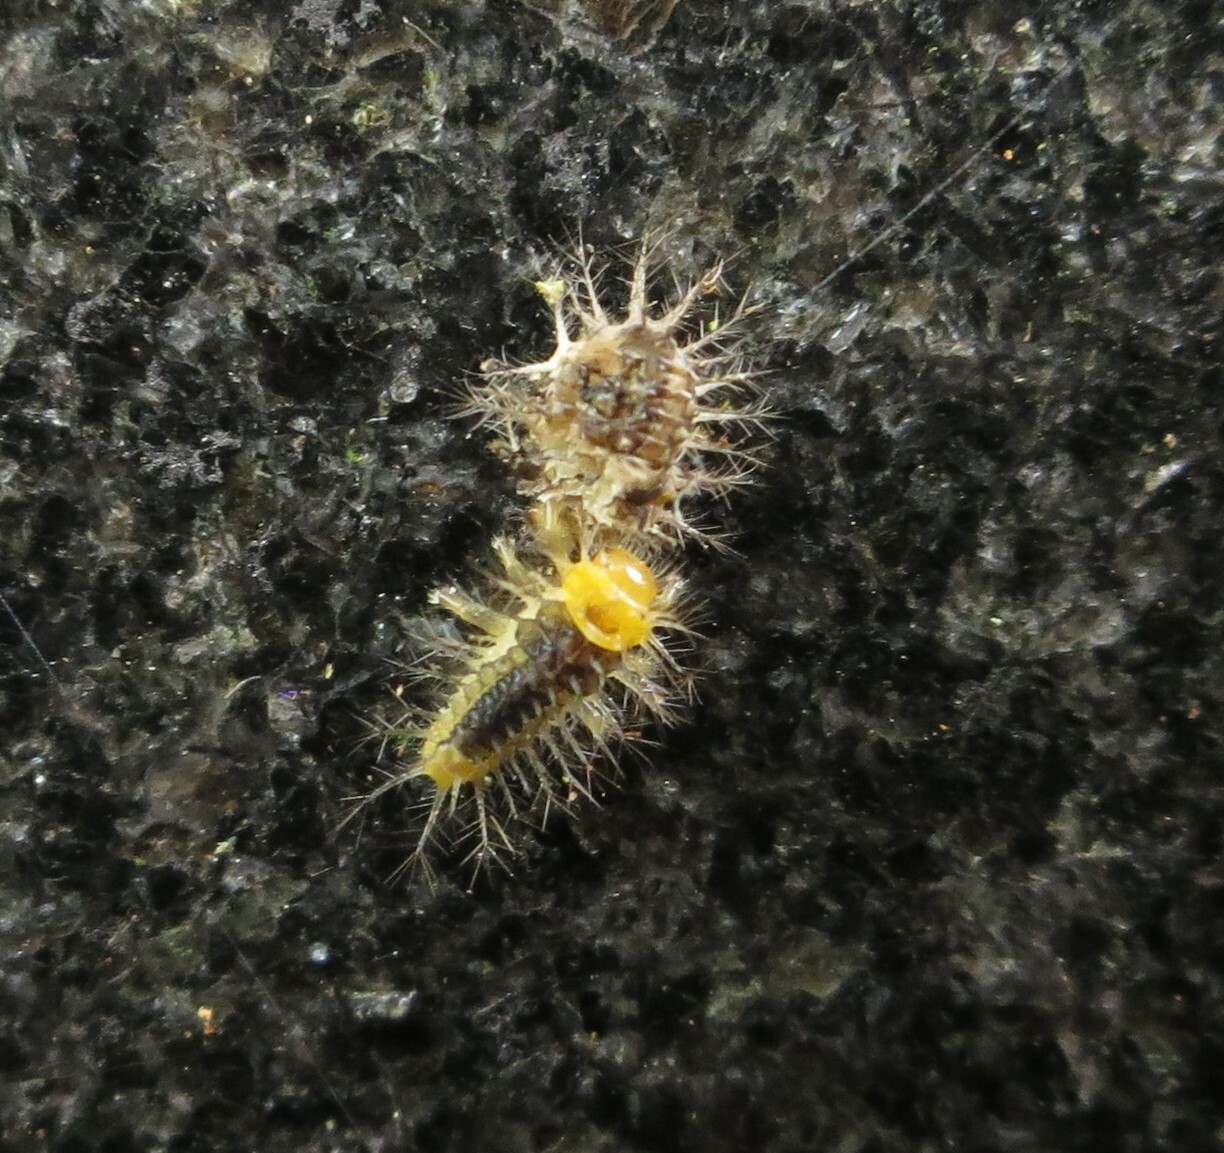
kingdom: Animalia
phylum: Arthropoda
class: Insecta
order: Coleoptera
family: Coccinellidae
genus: Halmus
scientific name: Halmus chalybeus
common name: Steel blue ladybird beetle
